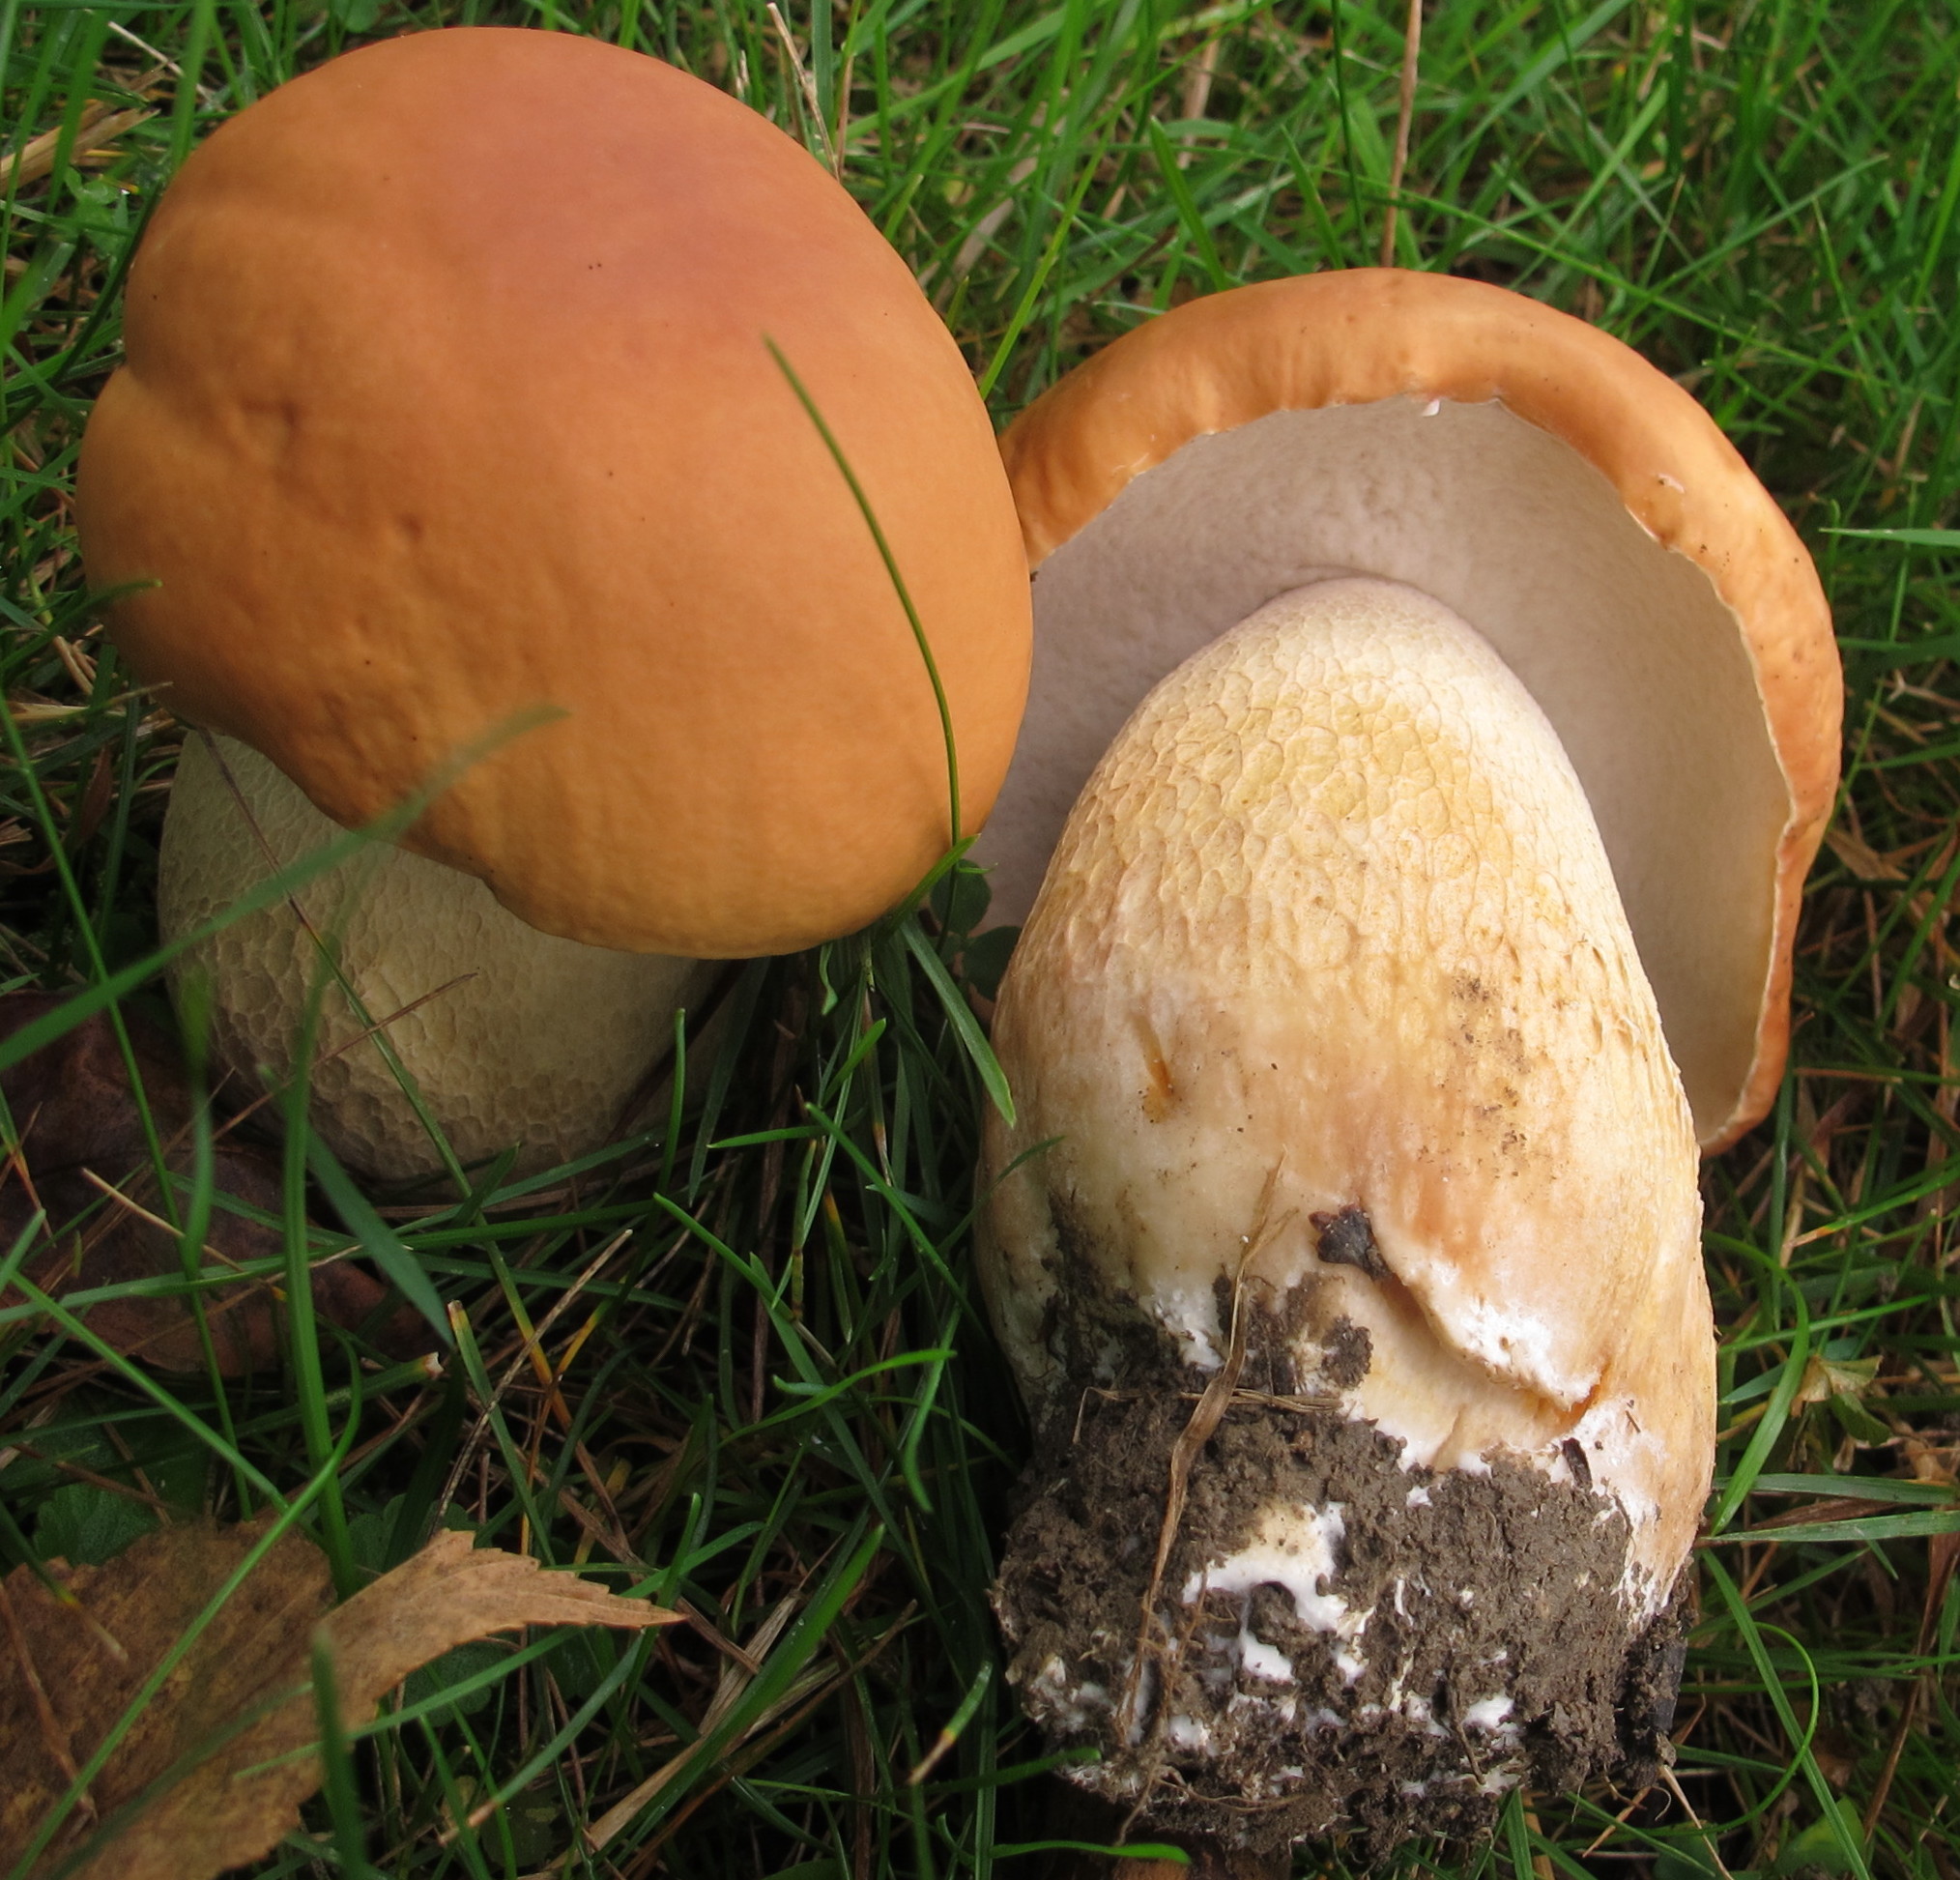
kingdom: Fungi
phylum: Basidiomycota
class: Agaricomycetes
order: Boletales
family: Boletaceae
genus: Boletus
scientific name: Boletus edulis
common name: Cep
